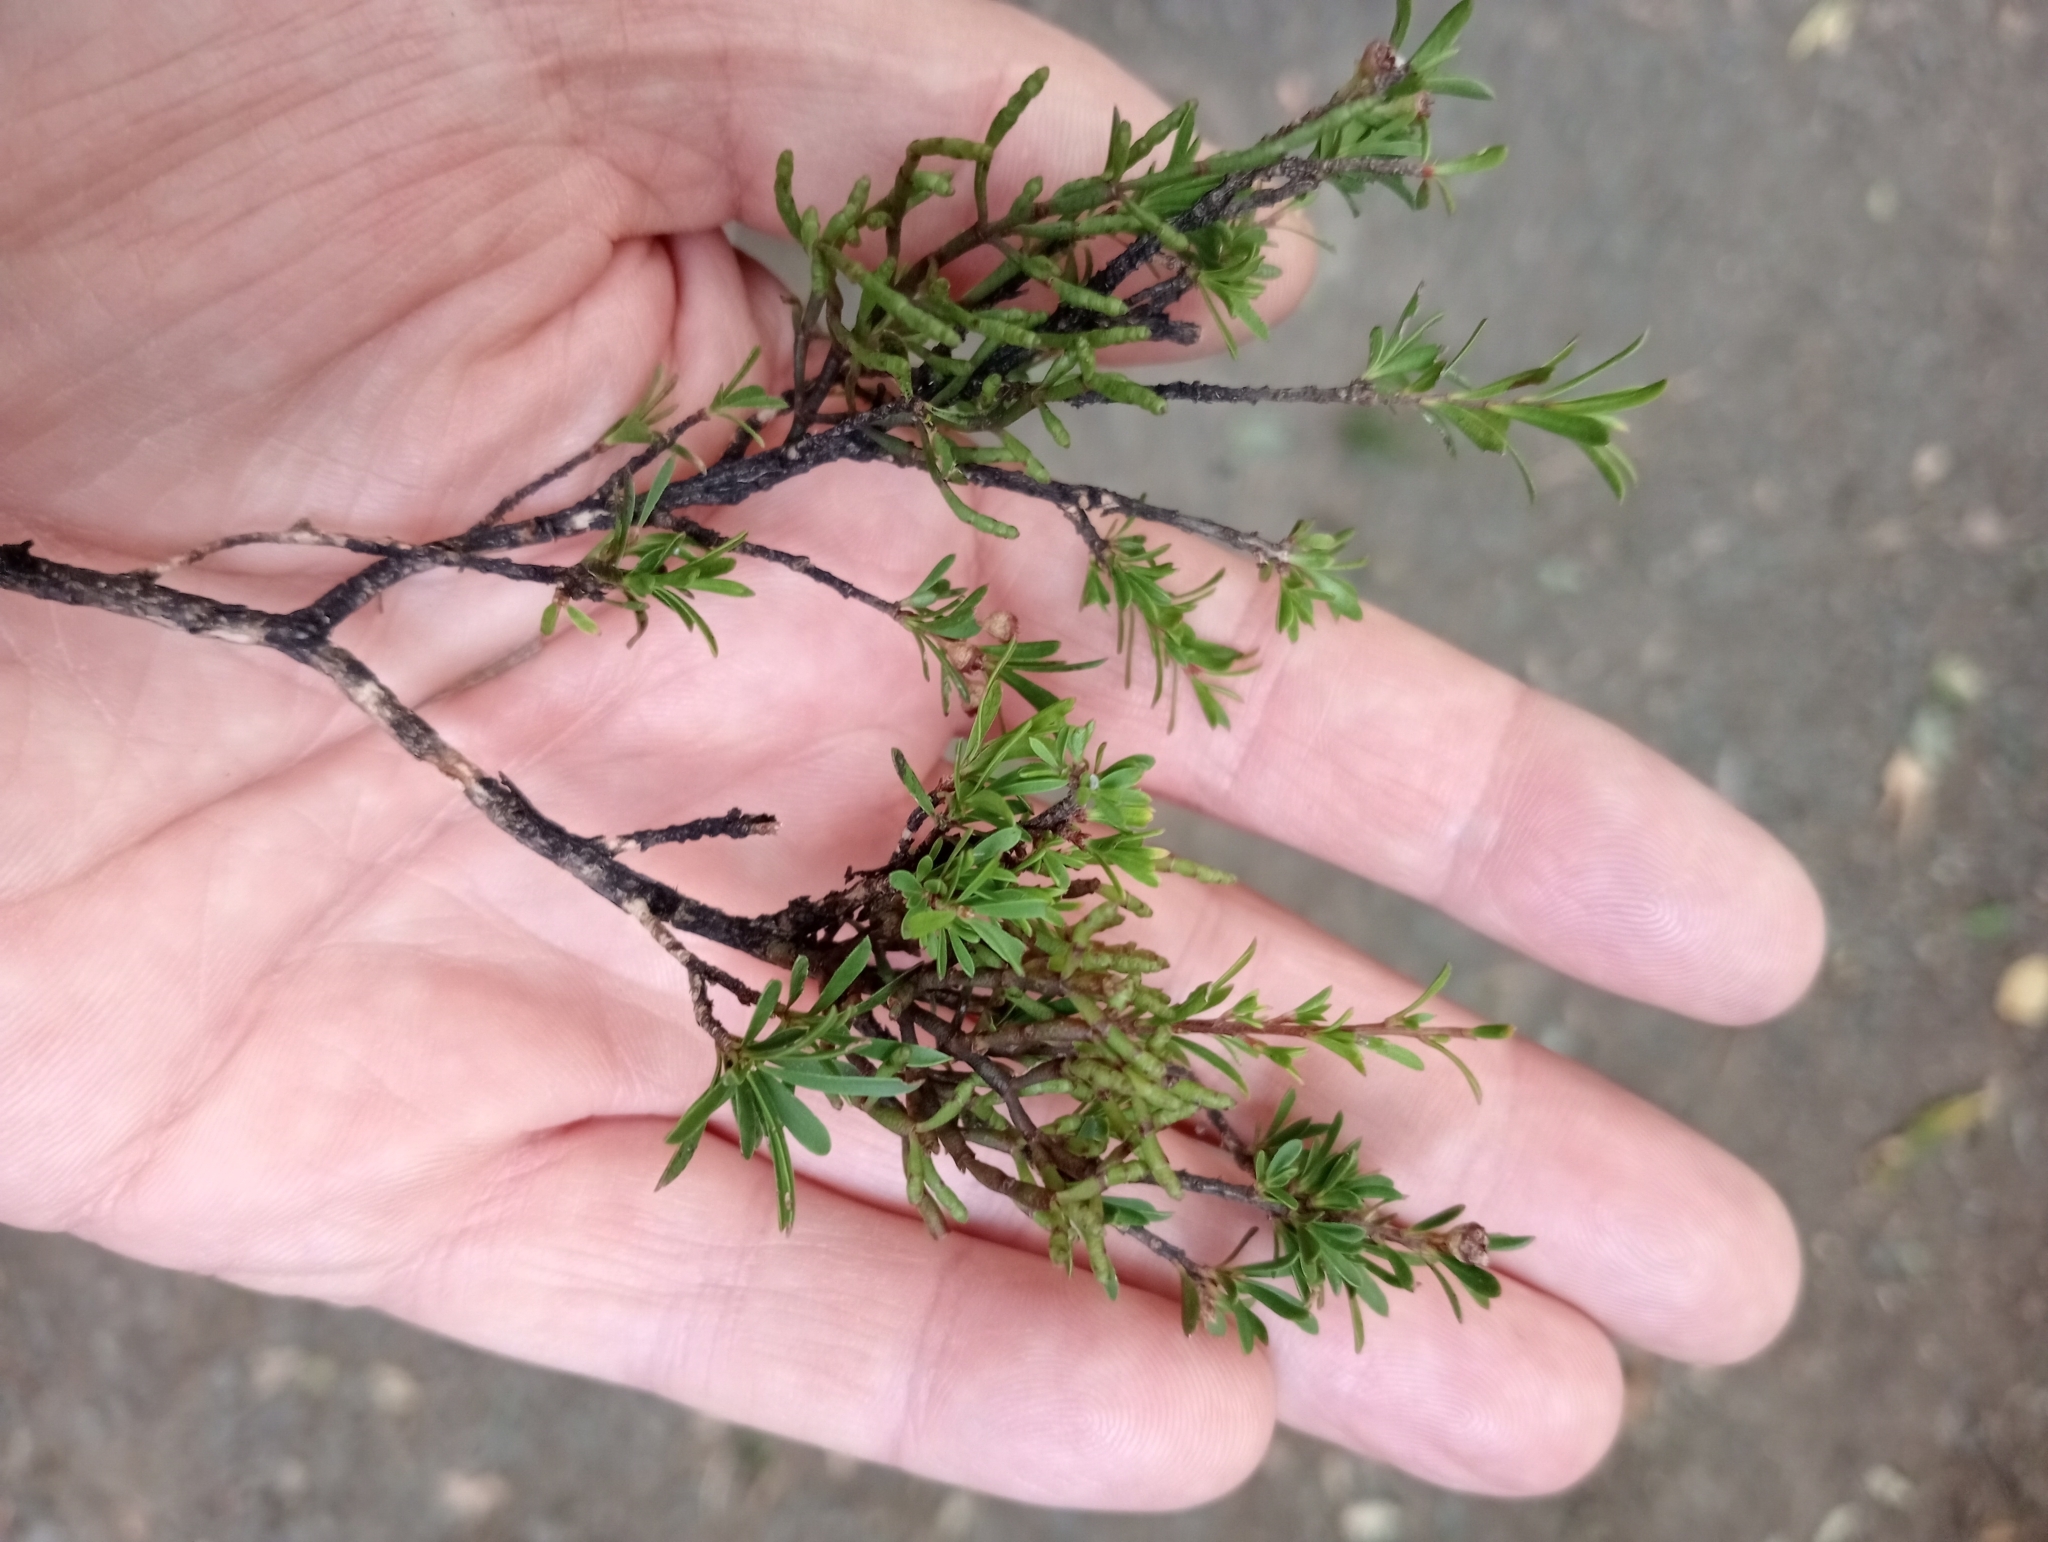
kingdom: Plantae
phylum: Tracheophyta
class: Magnoliopsida
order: Santalales
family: Viscaceae
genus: Korthalsella
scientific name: Korthalsella salicornioides
